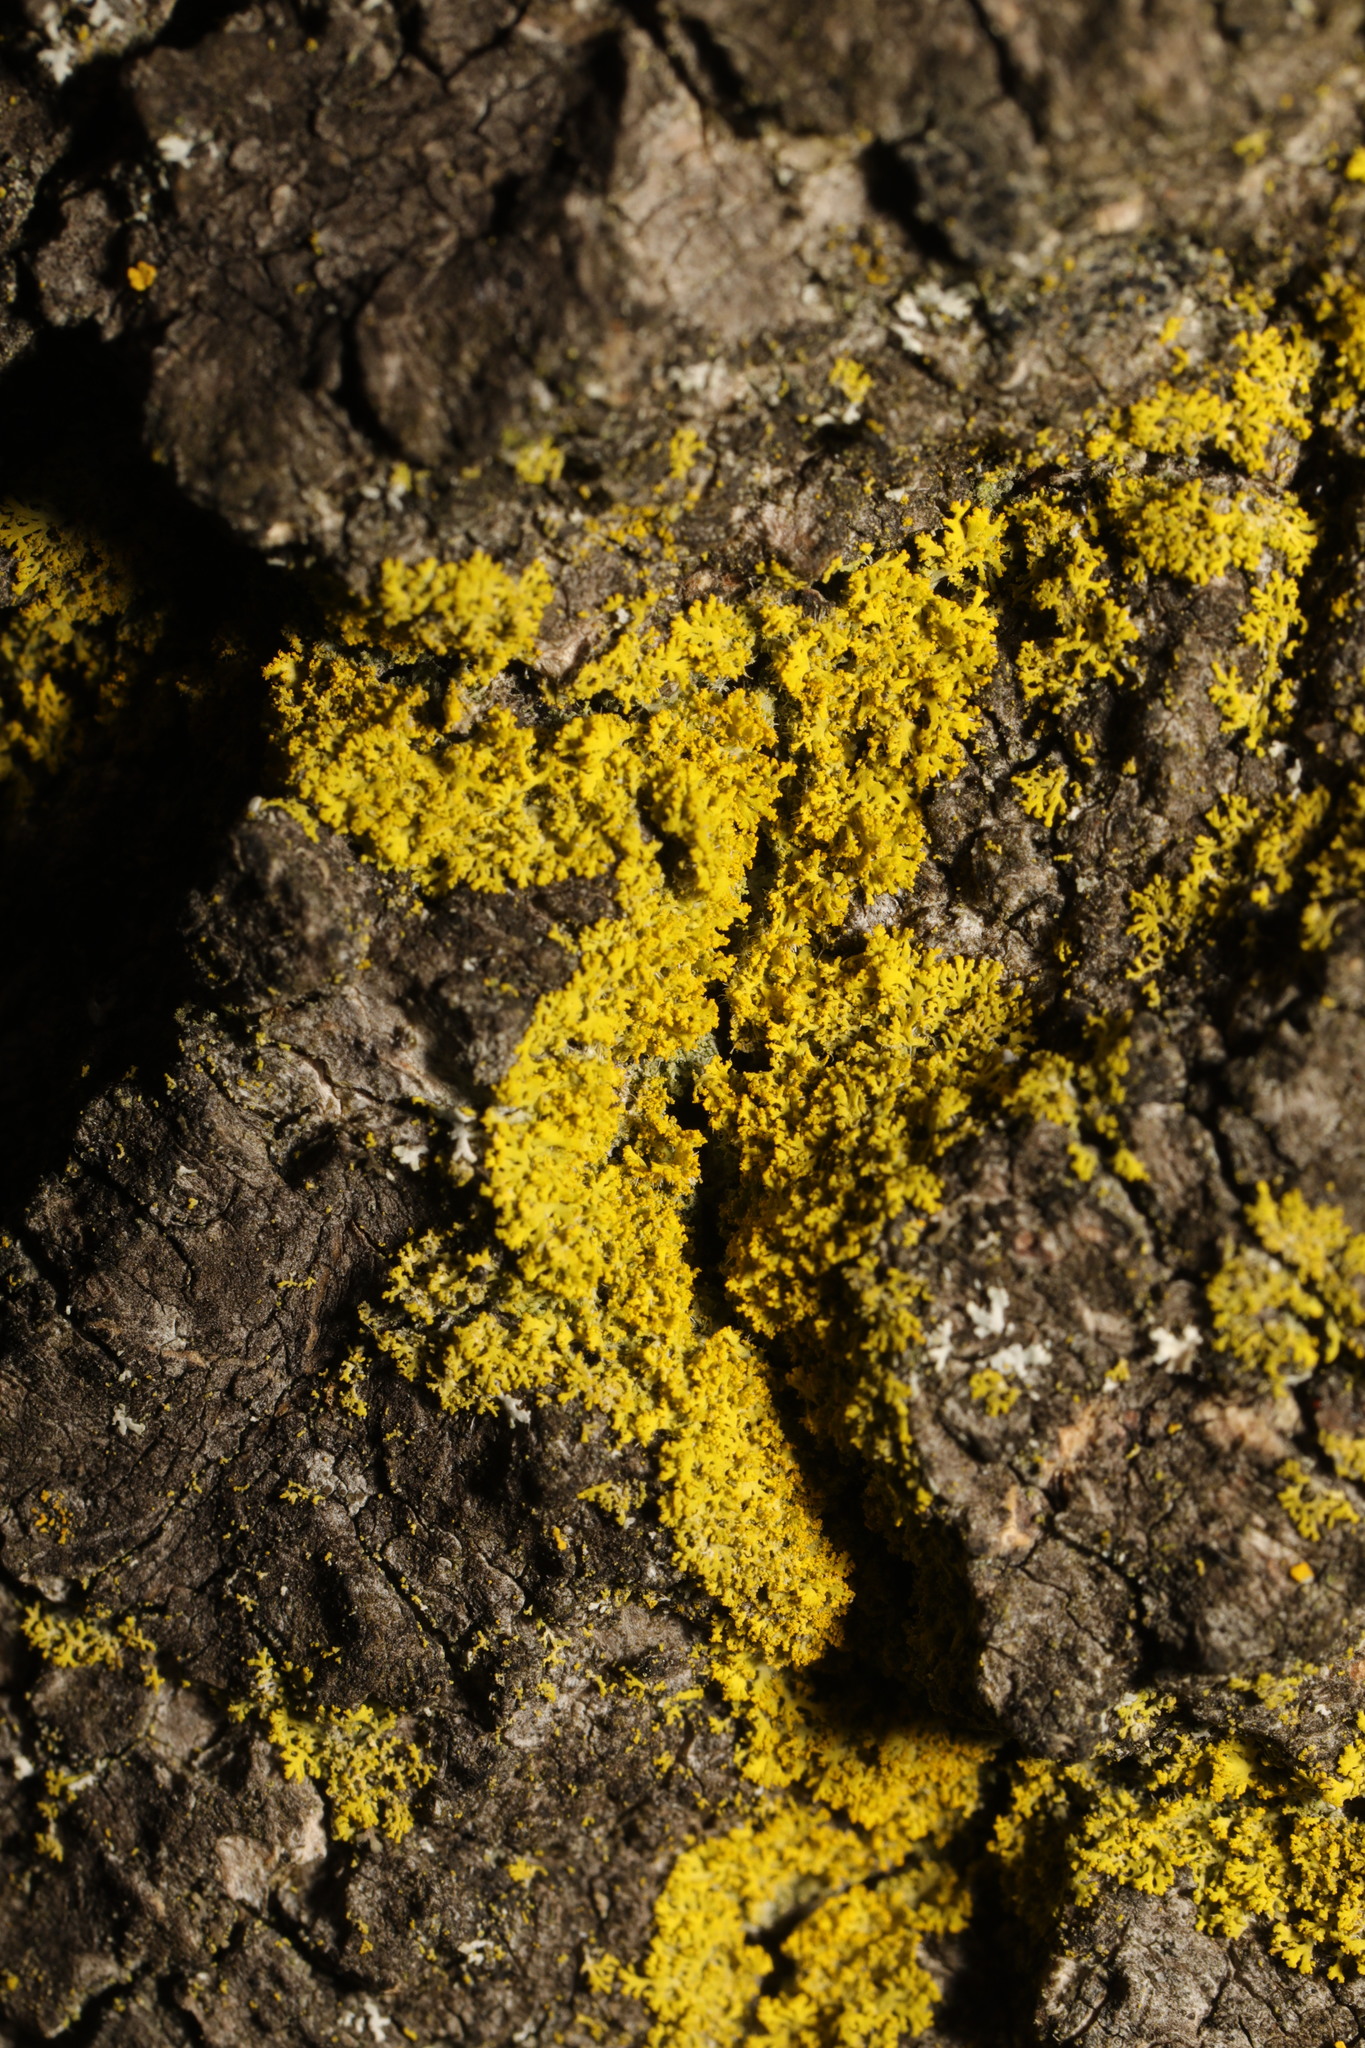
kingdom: Fungi
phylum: Ascomycota
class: Candelariomycetes
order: Candelariales
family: Candelariaceae
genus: Candelaria
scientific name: Candelaria concolor
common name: Candleflame lichen
